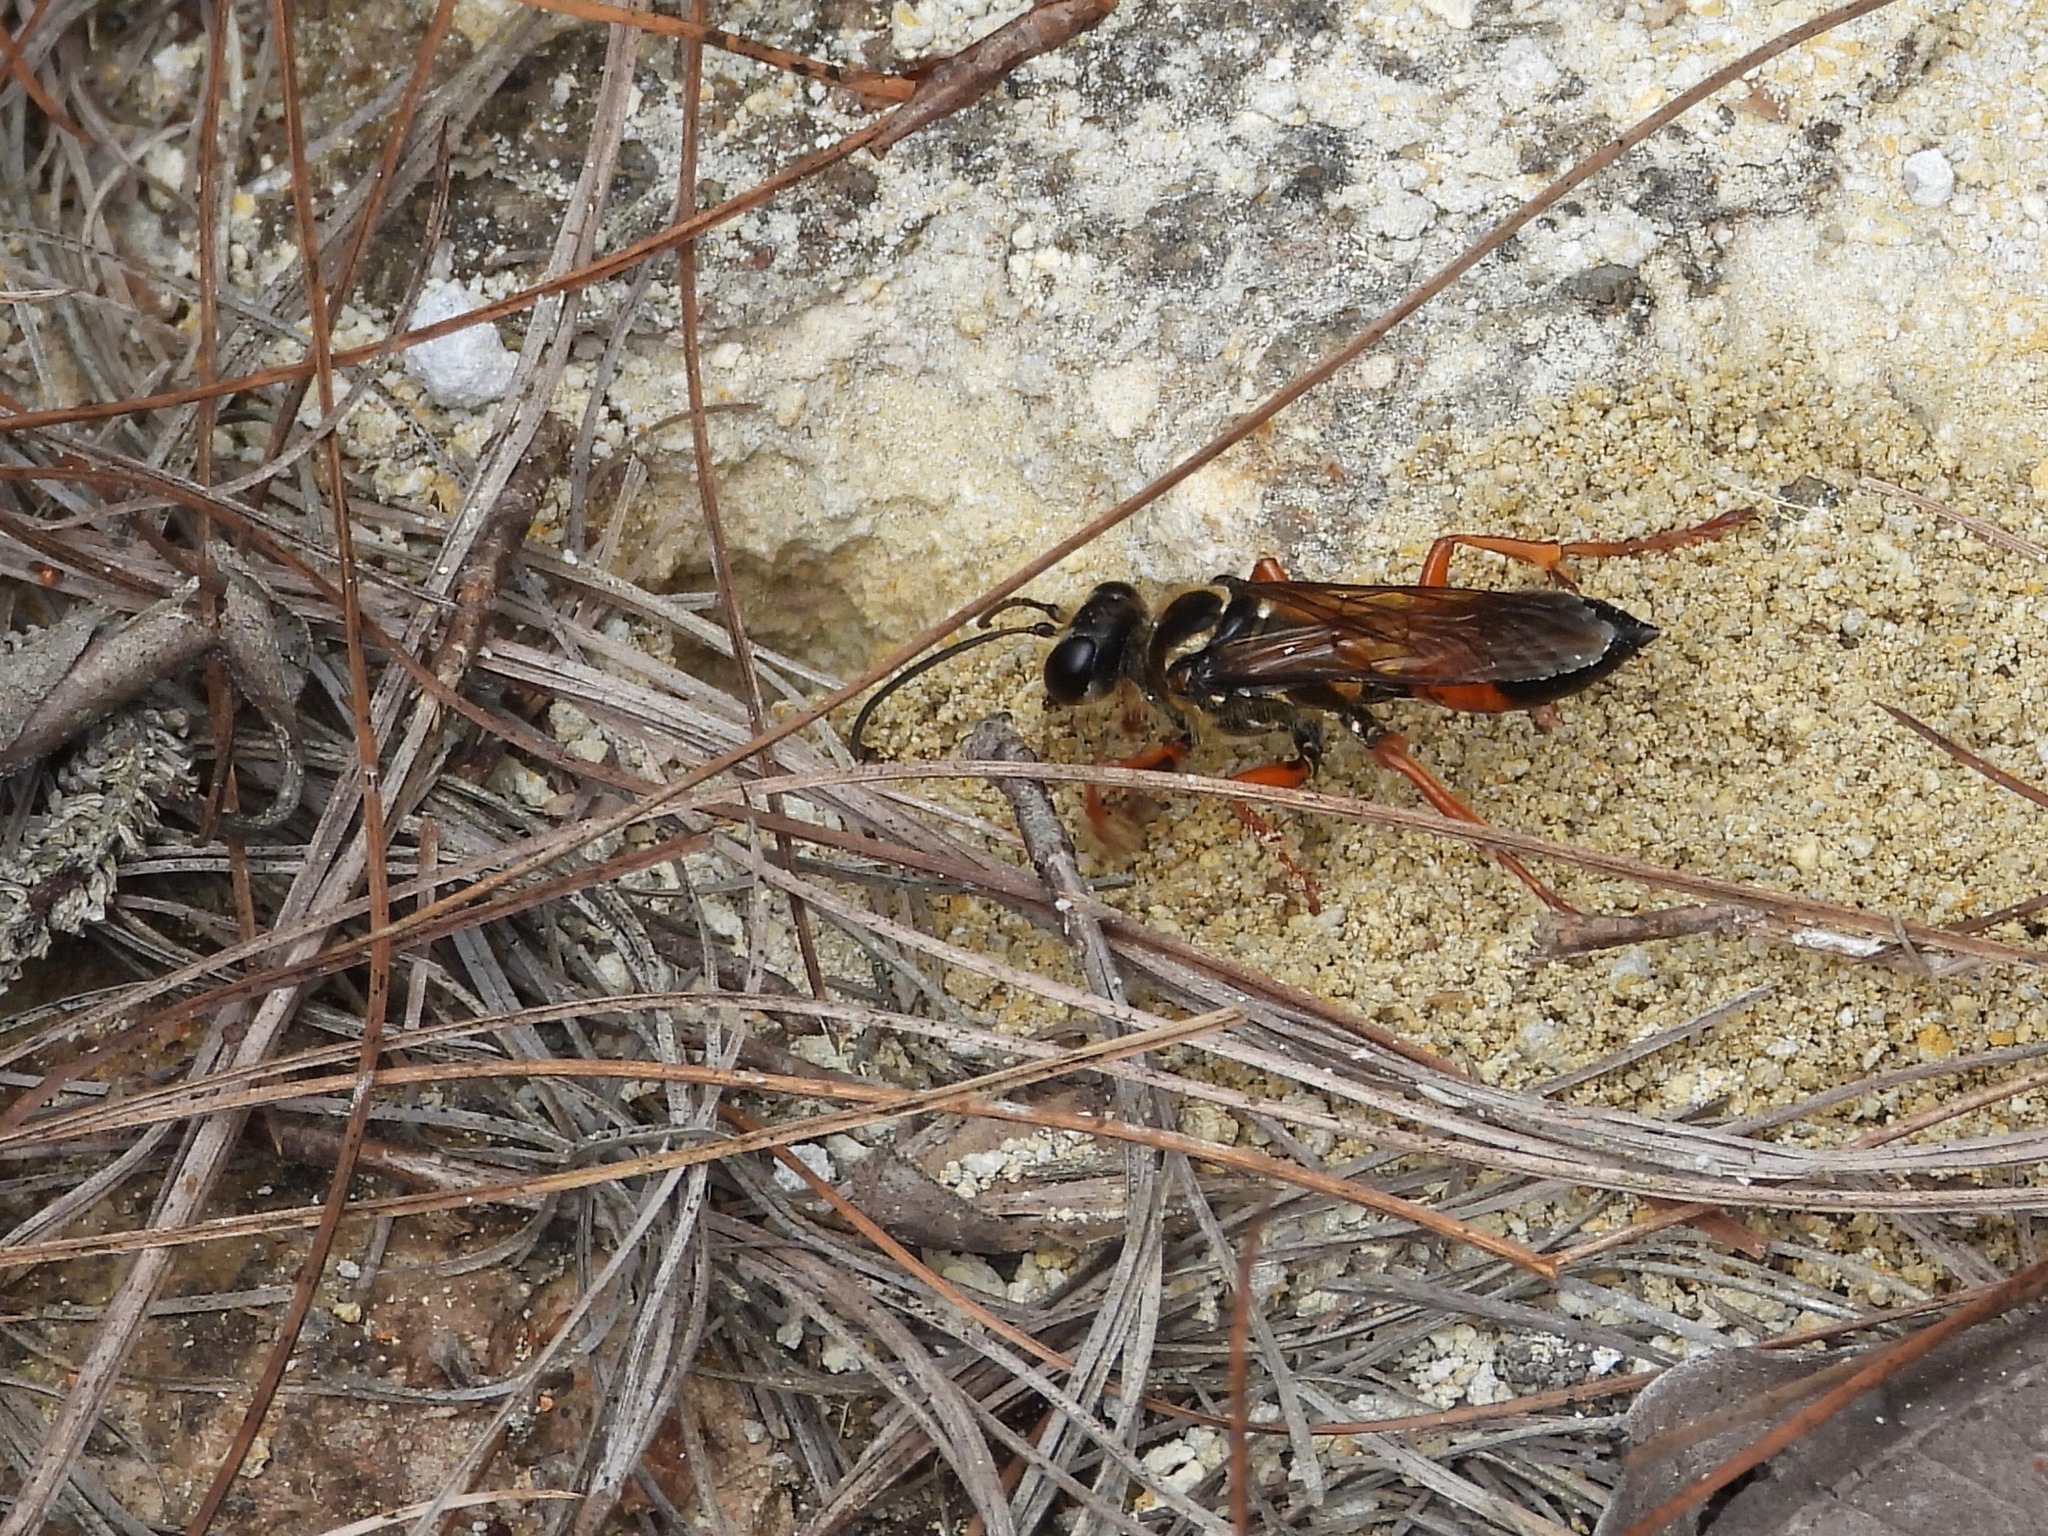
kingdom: Animalia
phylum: Arthropoda
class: Insecta
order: Hymenoptera
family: Sphecidae
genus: Sphex
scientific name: Sphex ichneumoneus
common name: Great golden digger wasp
